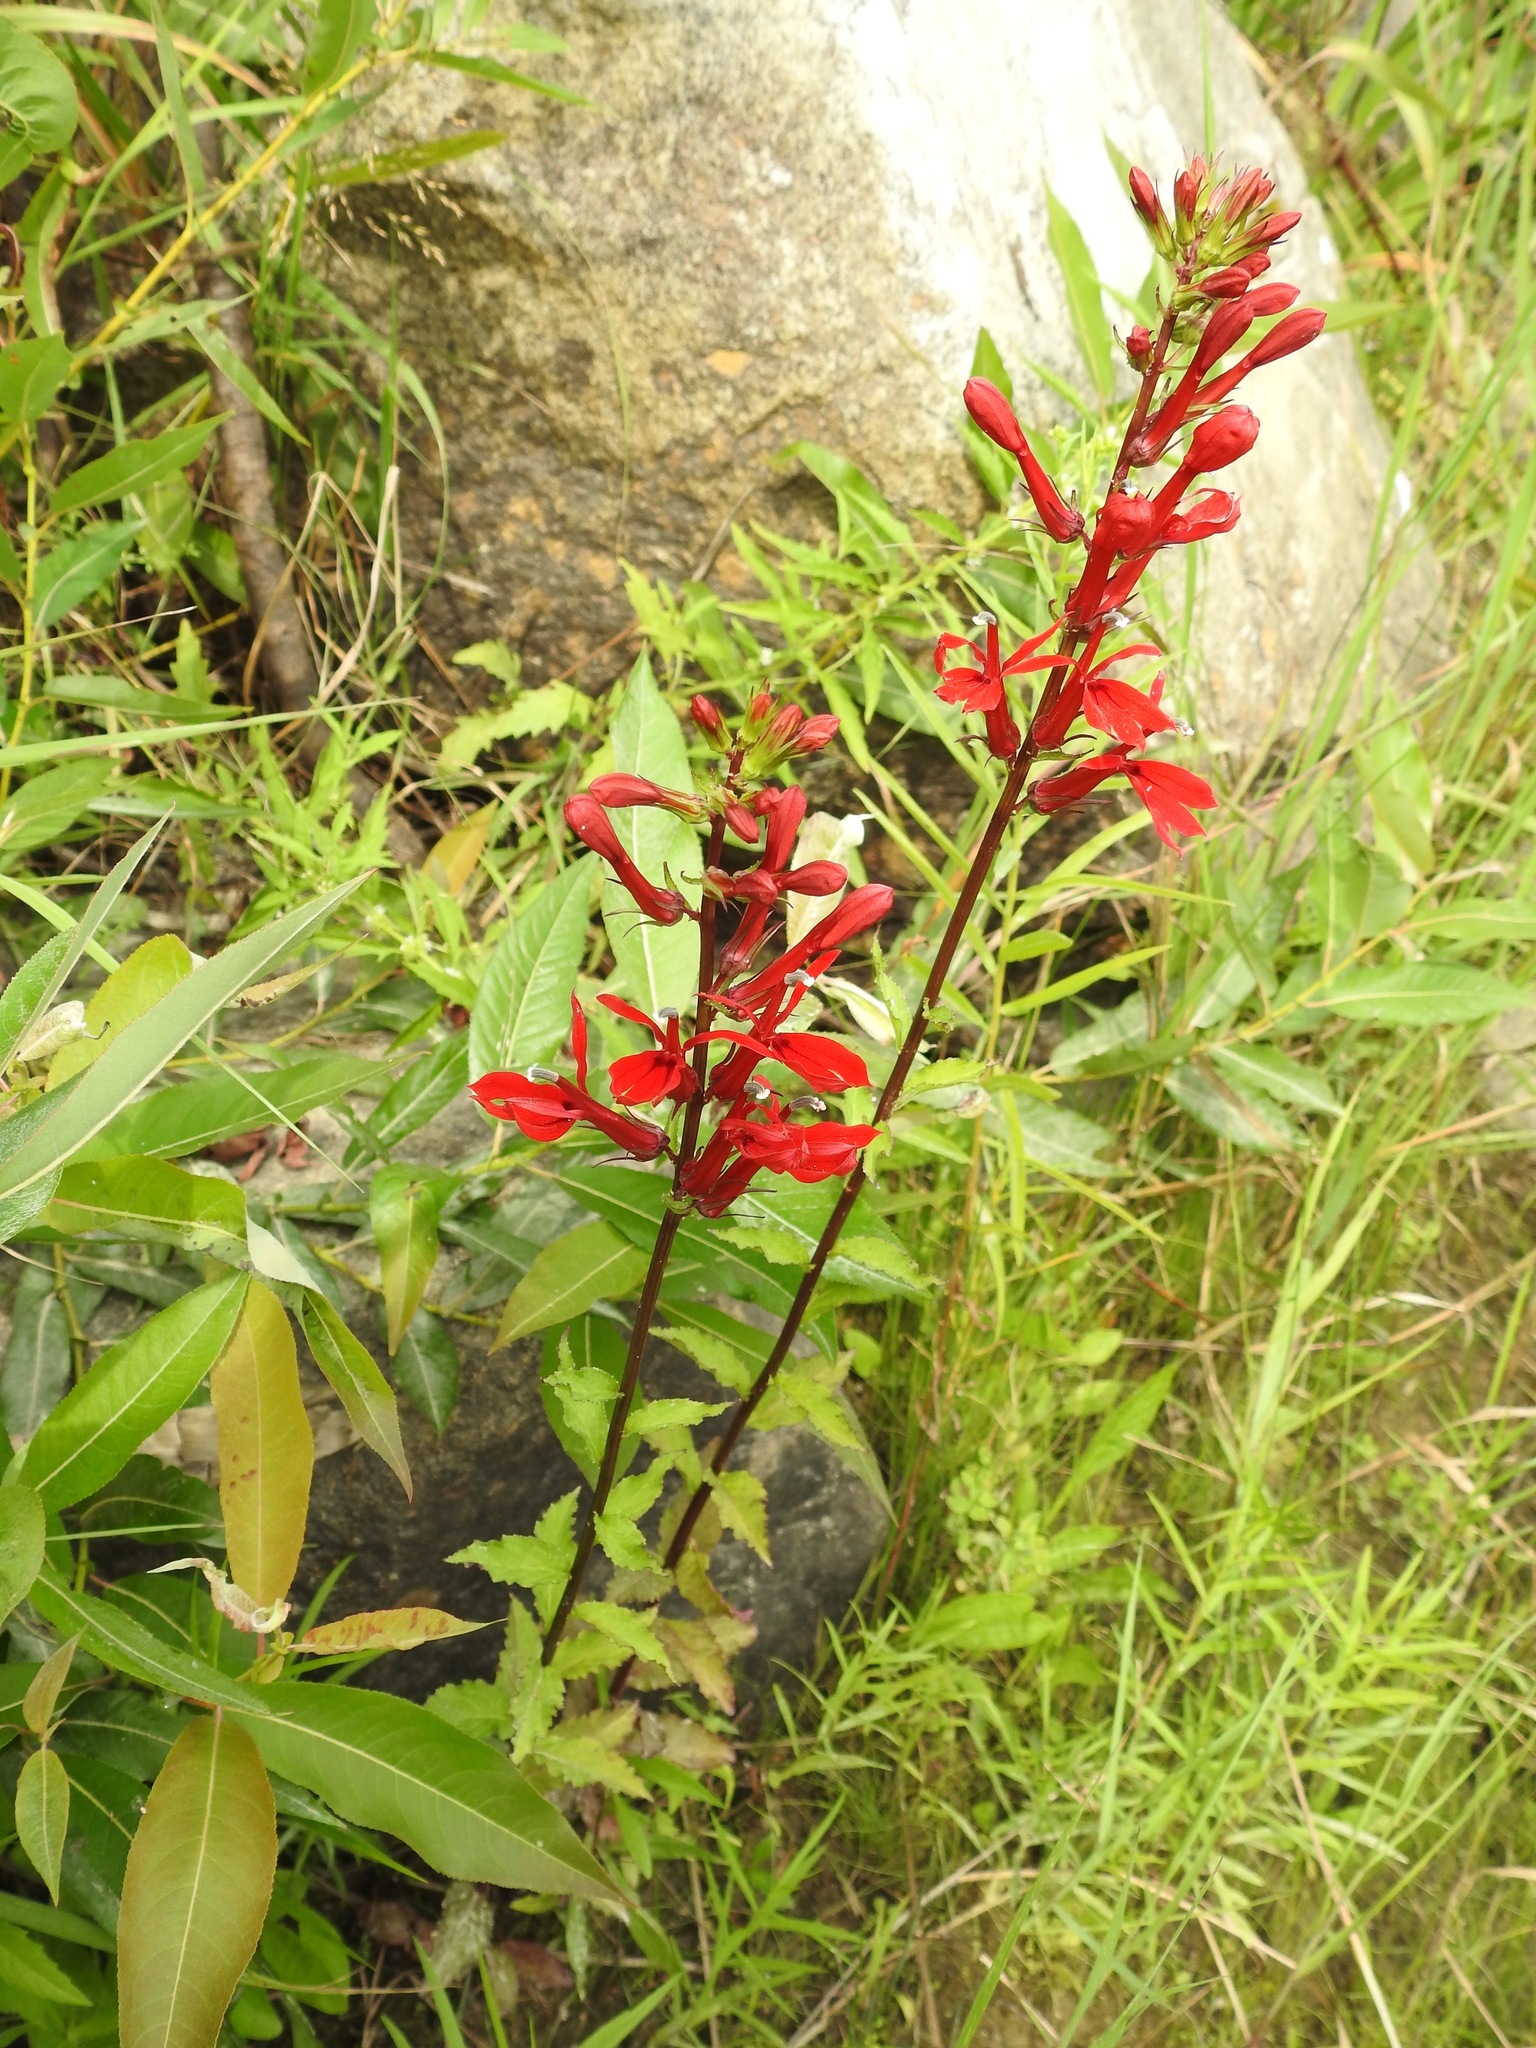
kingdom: Plantae
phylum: Tracheophyta
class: Magnoliopsida
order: Asterales
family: Campanulaceae
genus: Lobelia
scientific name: Lobelia cardinalis
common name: Cardinal flower
